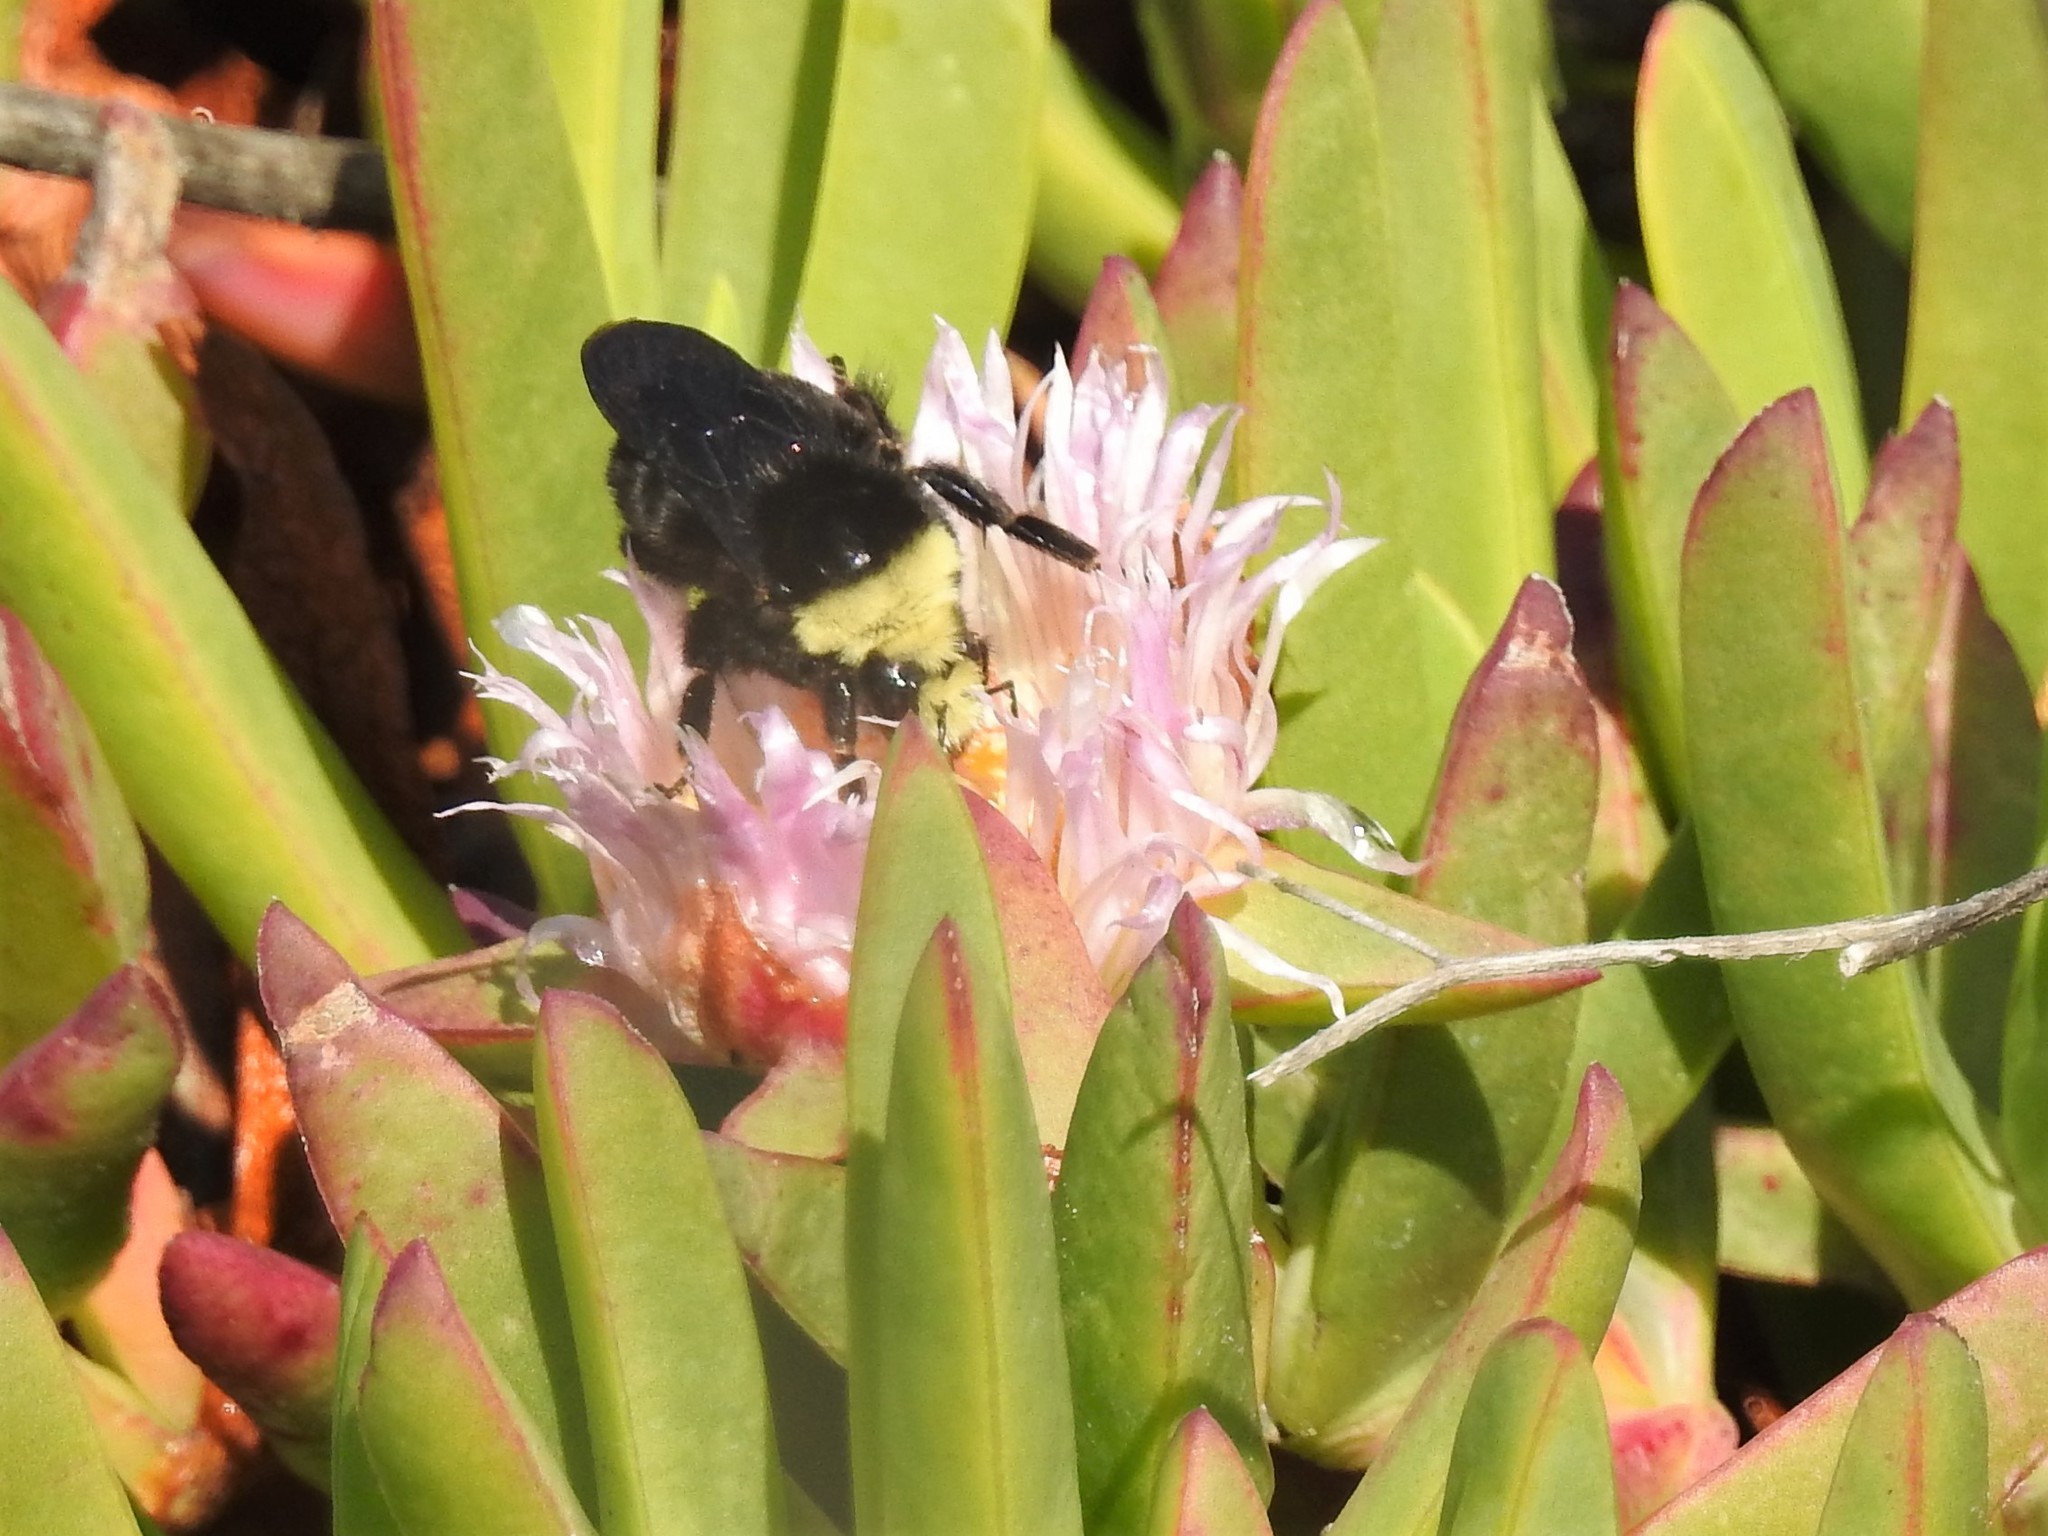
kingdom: Animalia
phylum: Arthropoda
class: Insecta
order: Hymenoptera
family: Apidae
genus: Pyrobombus
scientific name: Pyrobombus
